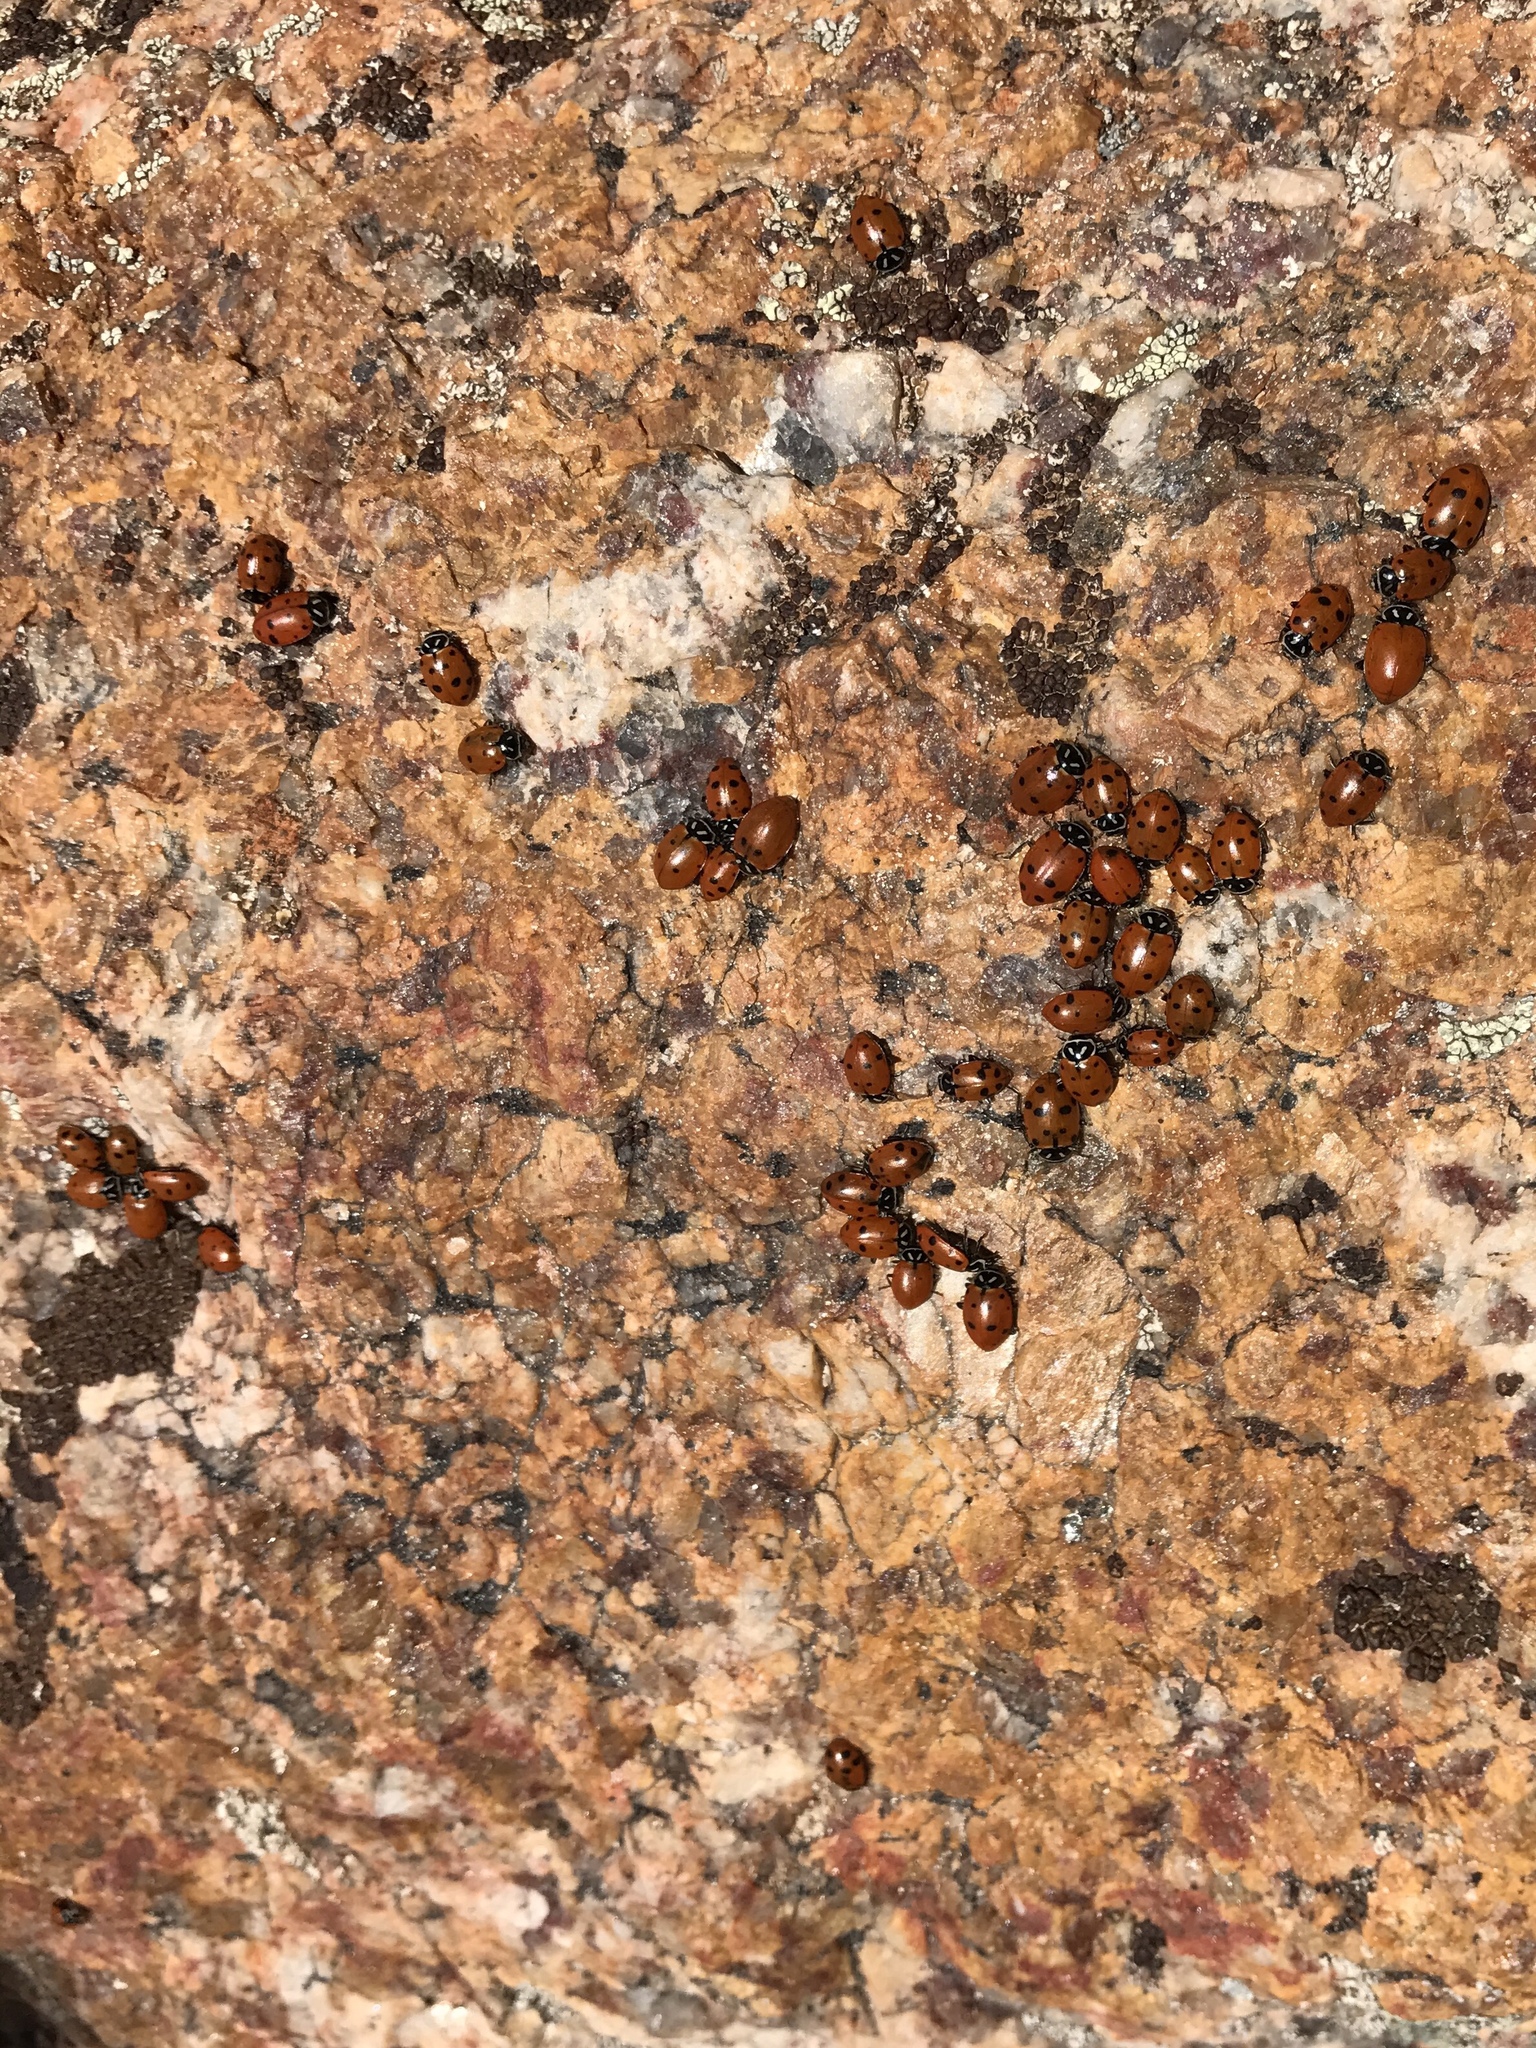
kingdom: Animalia
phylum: Arthropoda
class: Insecta
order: Coleoptera
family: Coccinellidae
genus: Hippodamia
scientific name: Hippodamia convergens
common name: Convergent lady beetle
